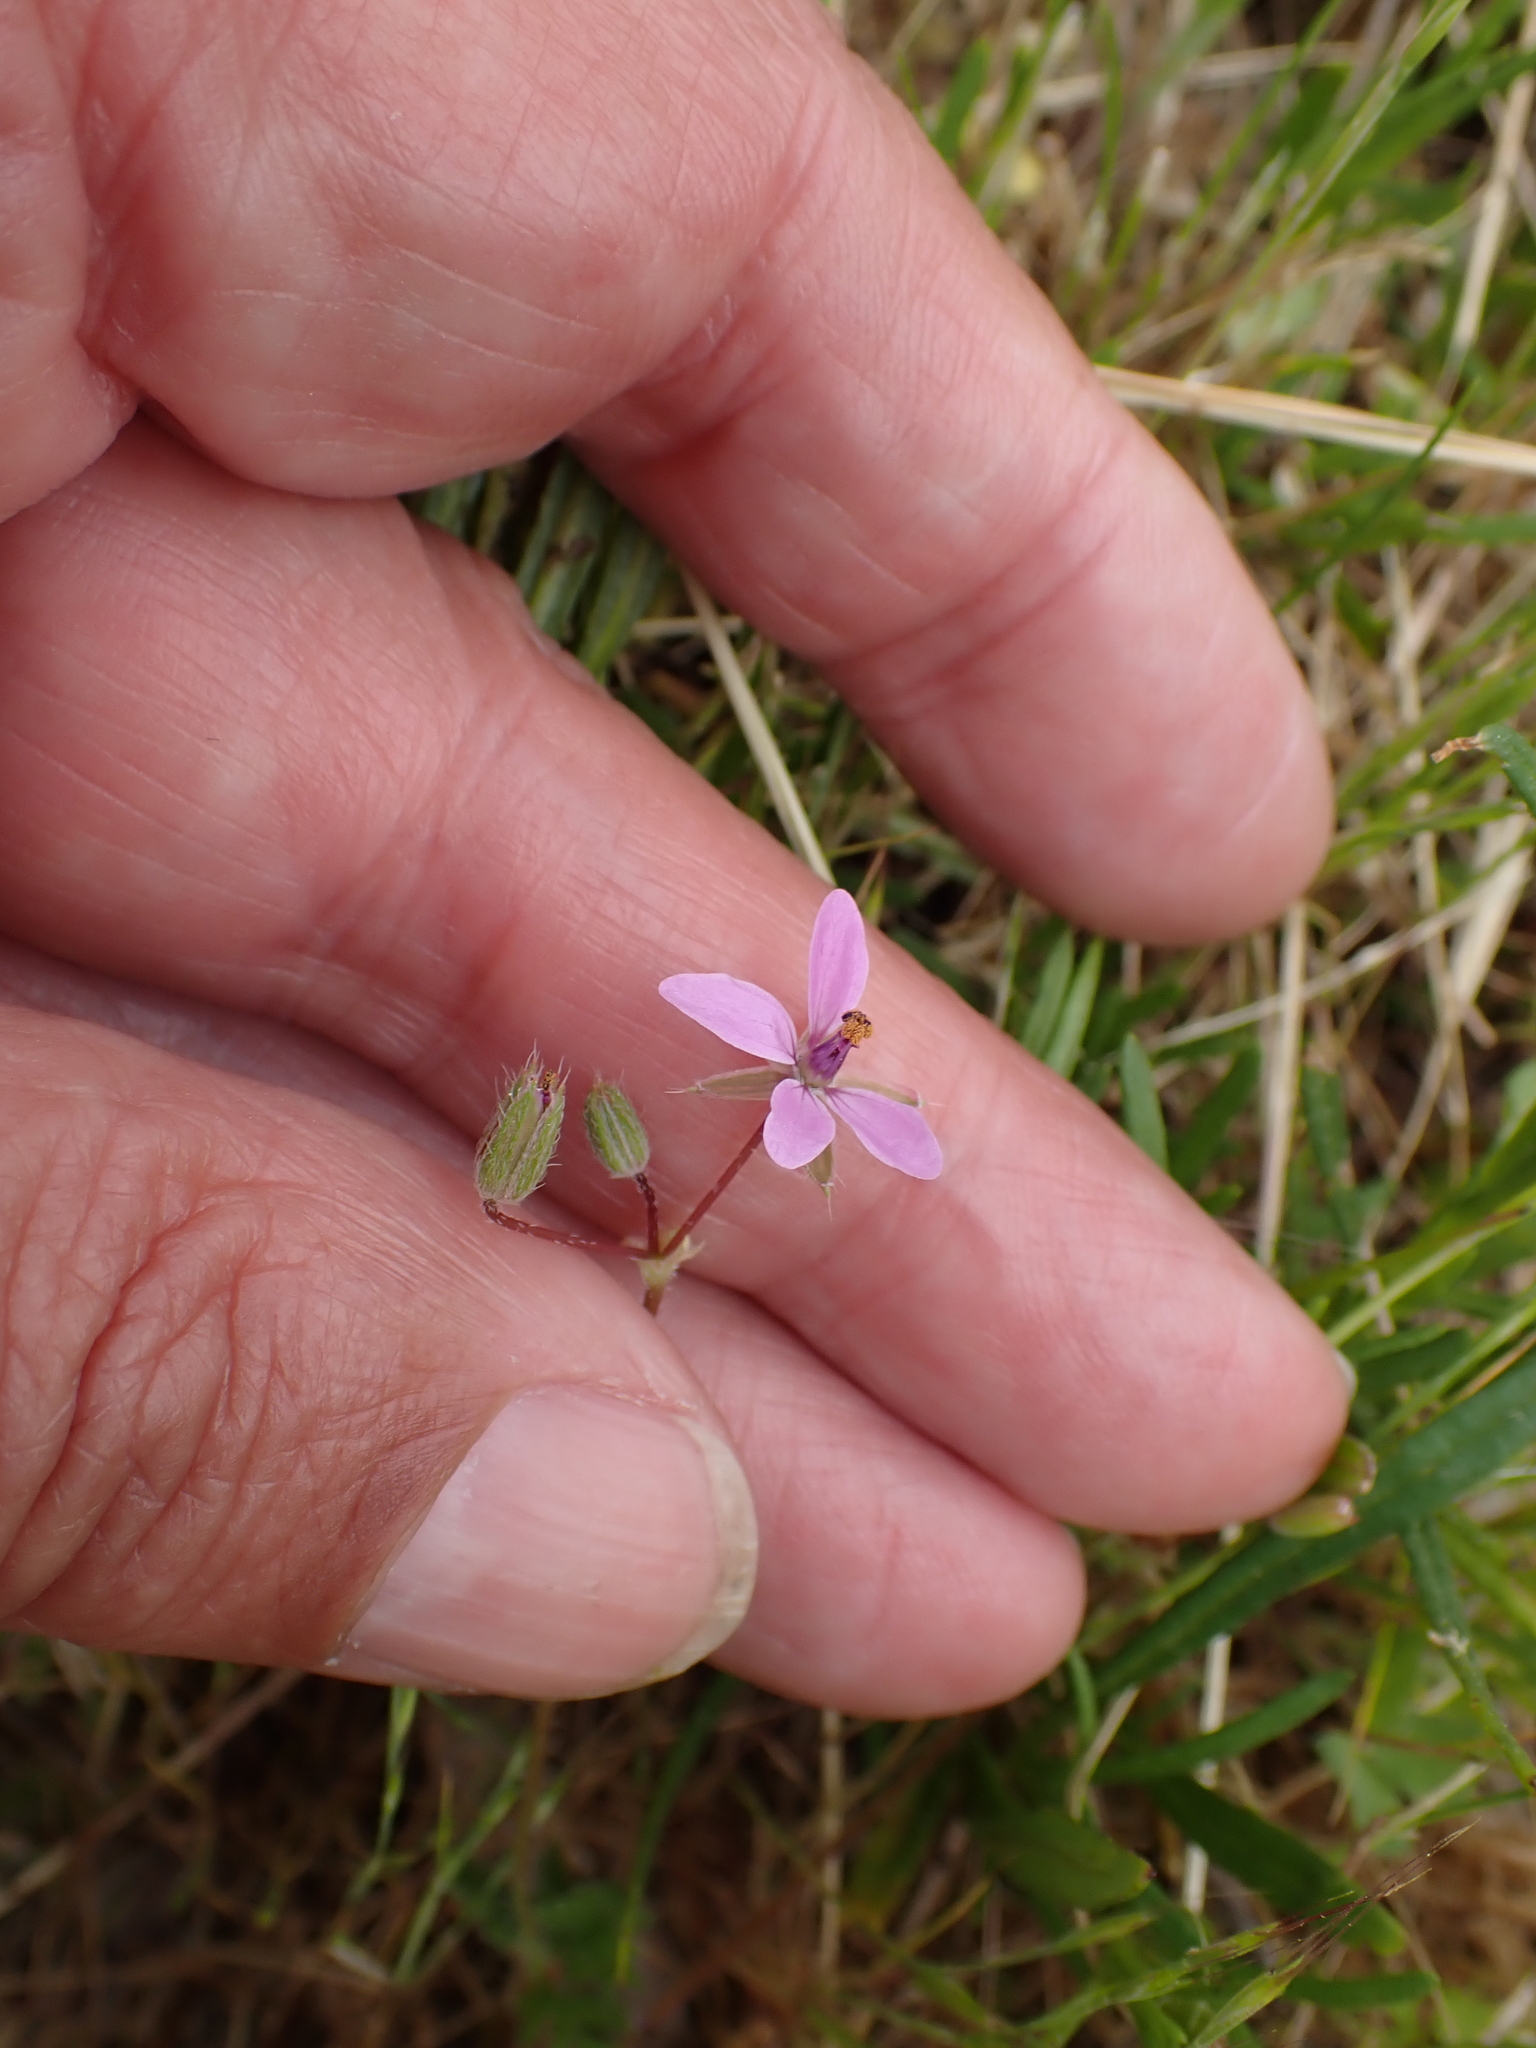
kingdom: Plantae
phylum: Tracheophyta
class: Magnoliopsida
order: Geraniales
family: Geraniaceae
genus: Erodium
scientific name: Erodium cicutarium
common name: Common stork's-bill
